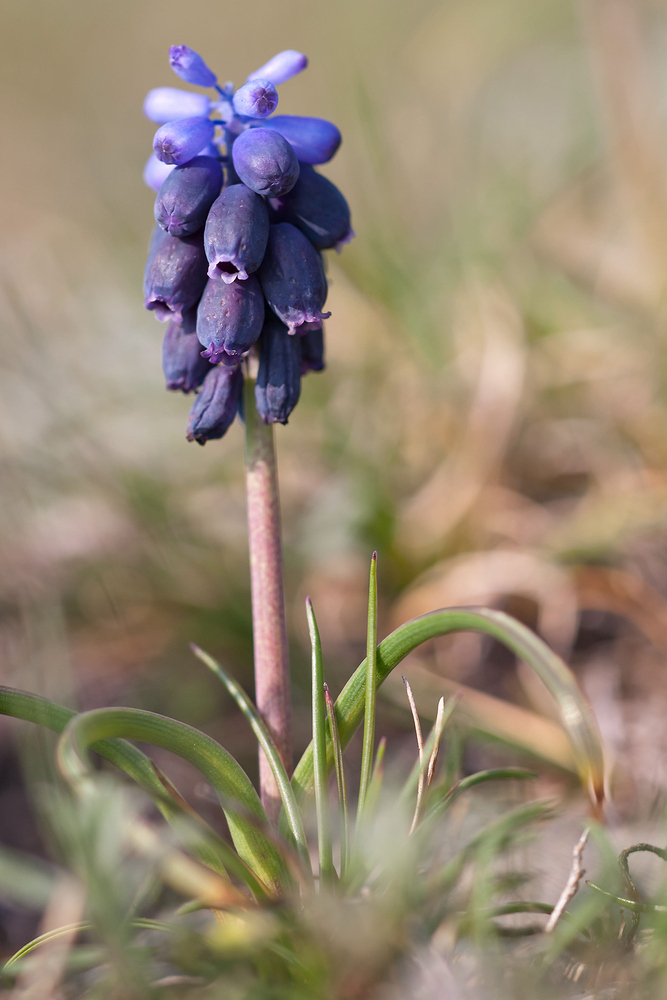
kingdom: Plantae
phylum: Tracheophyta
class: Liliopsida
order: Asparagales
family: Asparagaceae
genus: Muscari
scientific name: Muscari neglectum
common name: Grape-hyacinth
